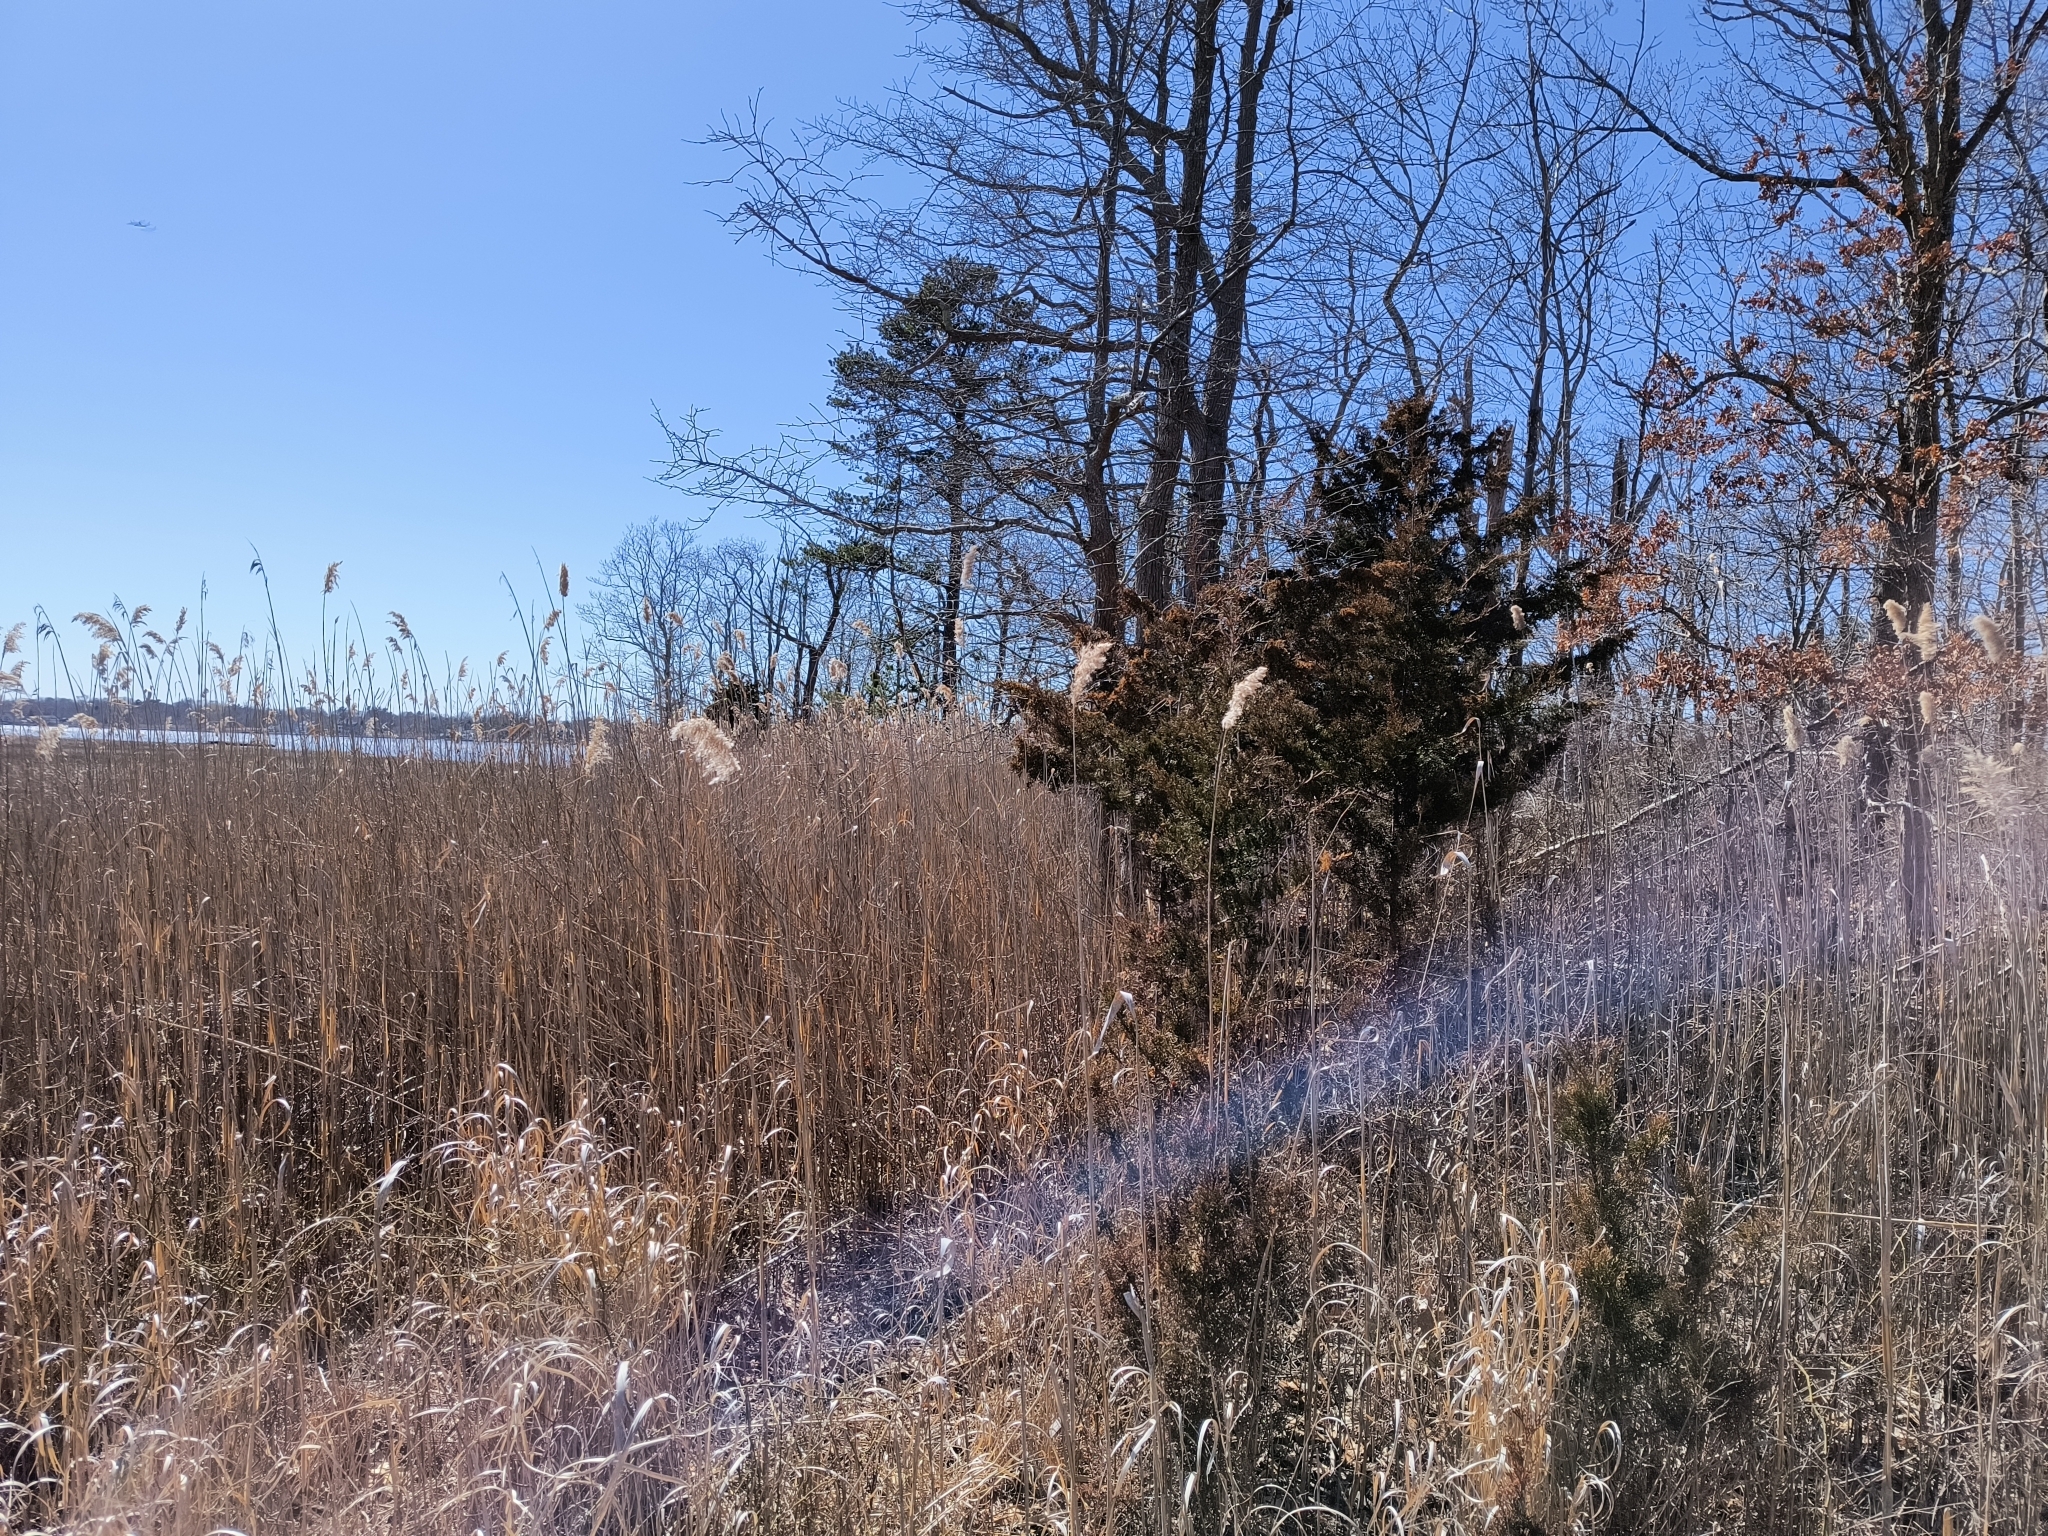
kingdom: Plantae
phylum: Tracheophyta
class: Pinopsida
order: Pinales
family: Cupressaceae
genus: Juniperus
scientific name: Juniperus virginiana
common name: Red juniper
